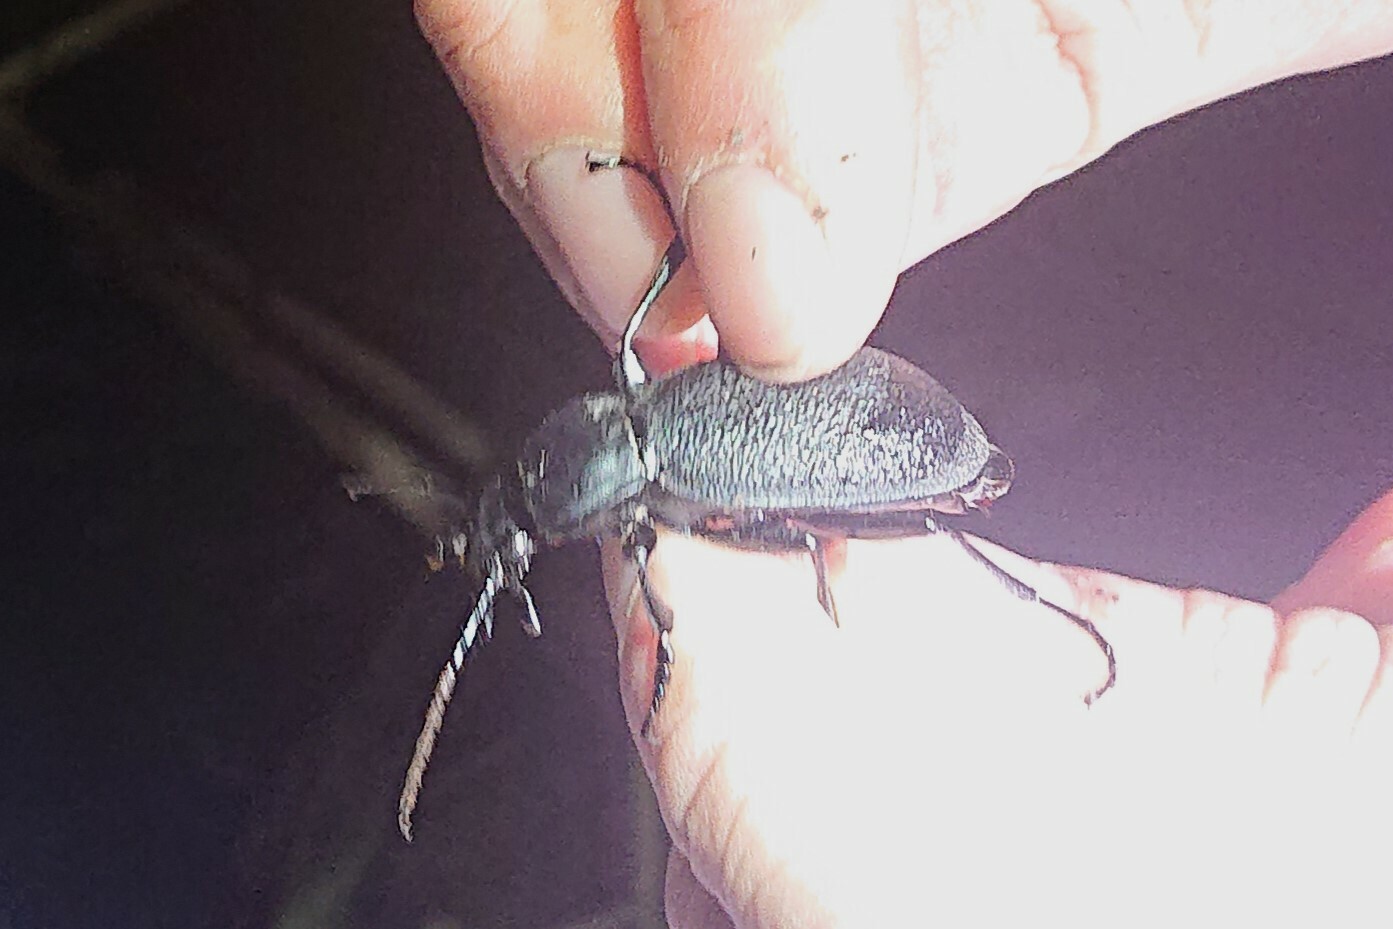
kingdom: Animalia
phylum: Arthropoda
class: Insecta
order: Coleoptera
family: Carabidae
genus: Carabus
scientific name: Carabus coriaceus
